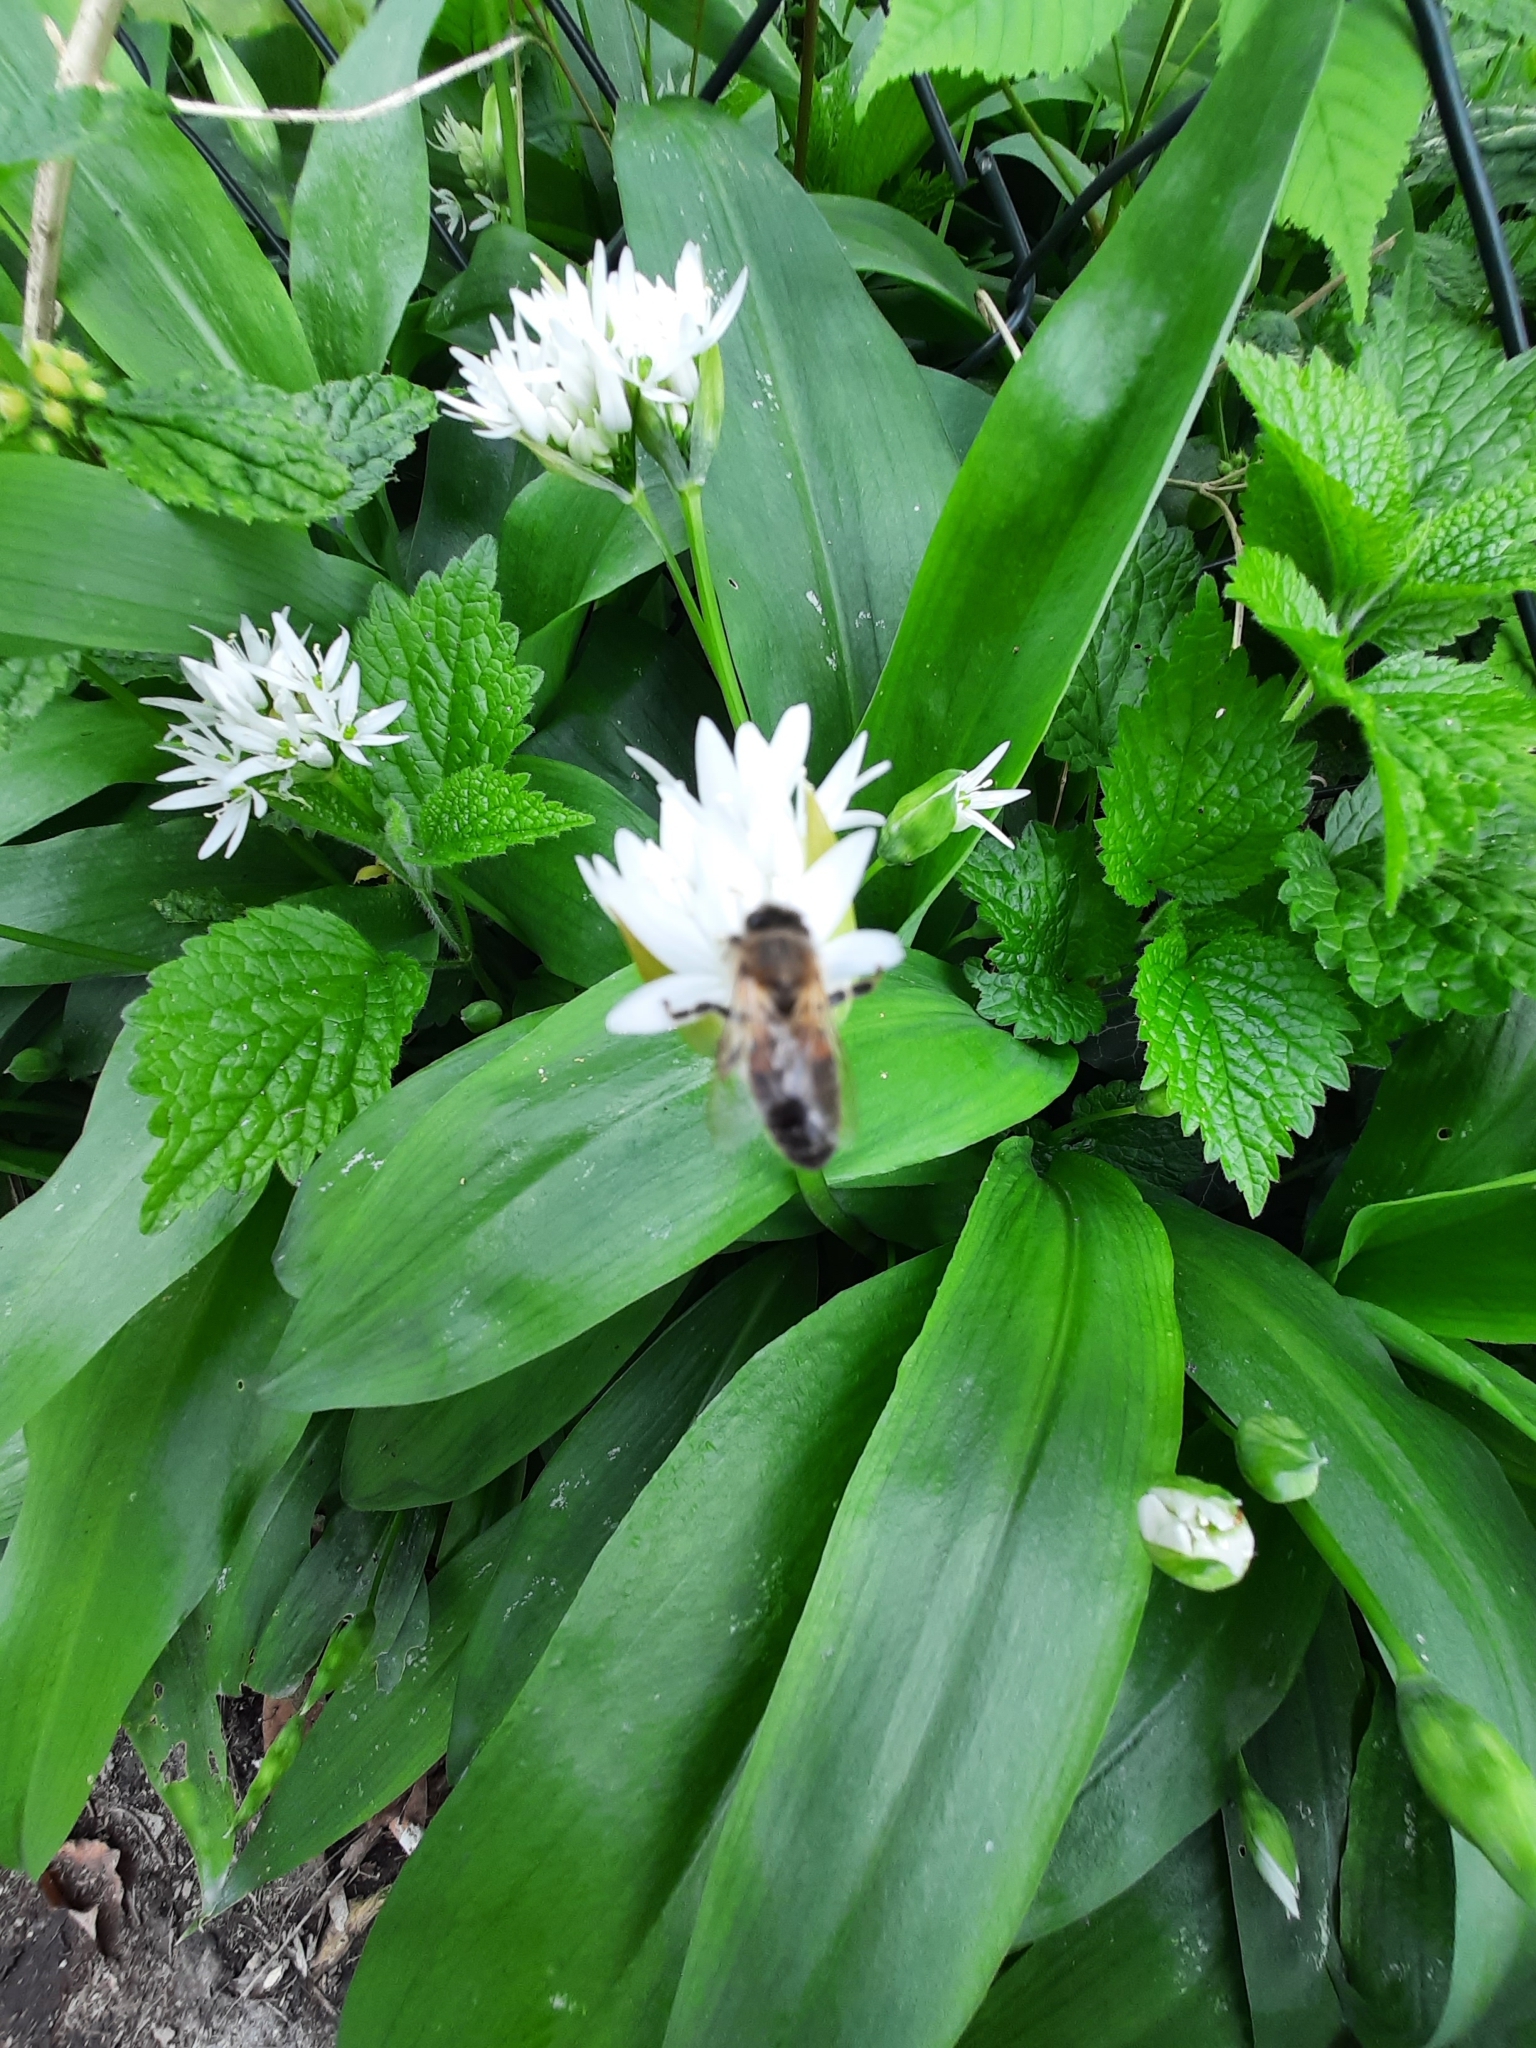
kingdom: Animalia
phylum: Arthropoda
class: Insecta
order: Hymenoptera
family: Apidae
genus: Apis
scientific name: Apis mellifera
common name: Honey bee
